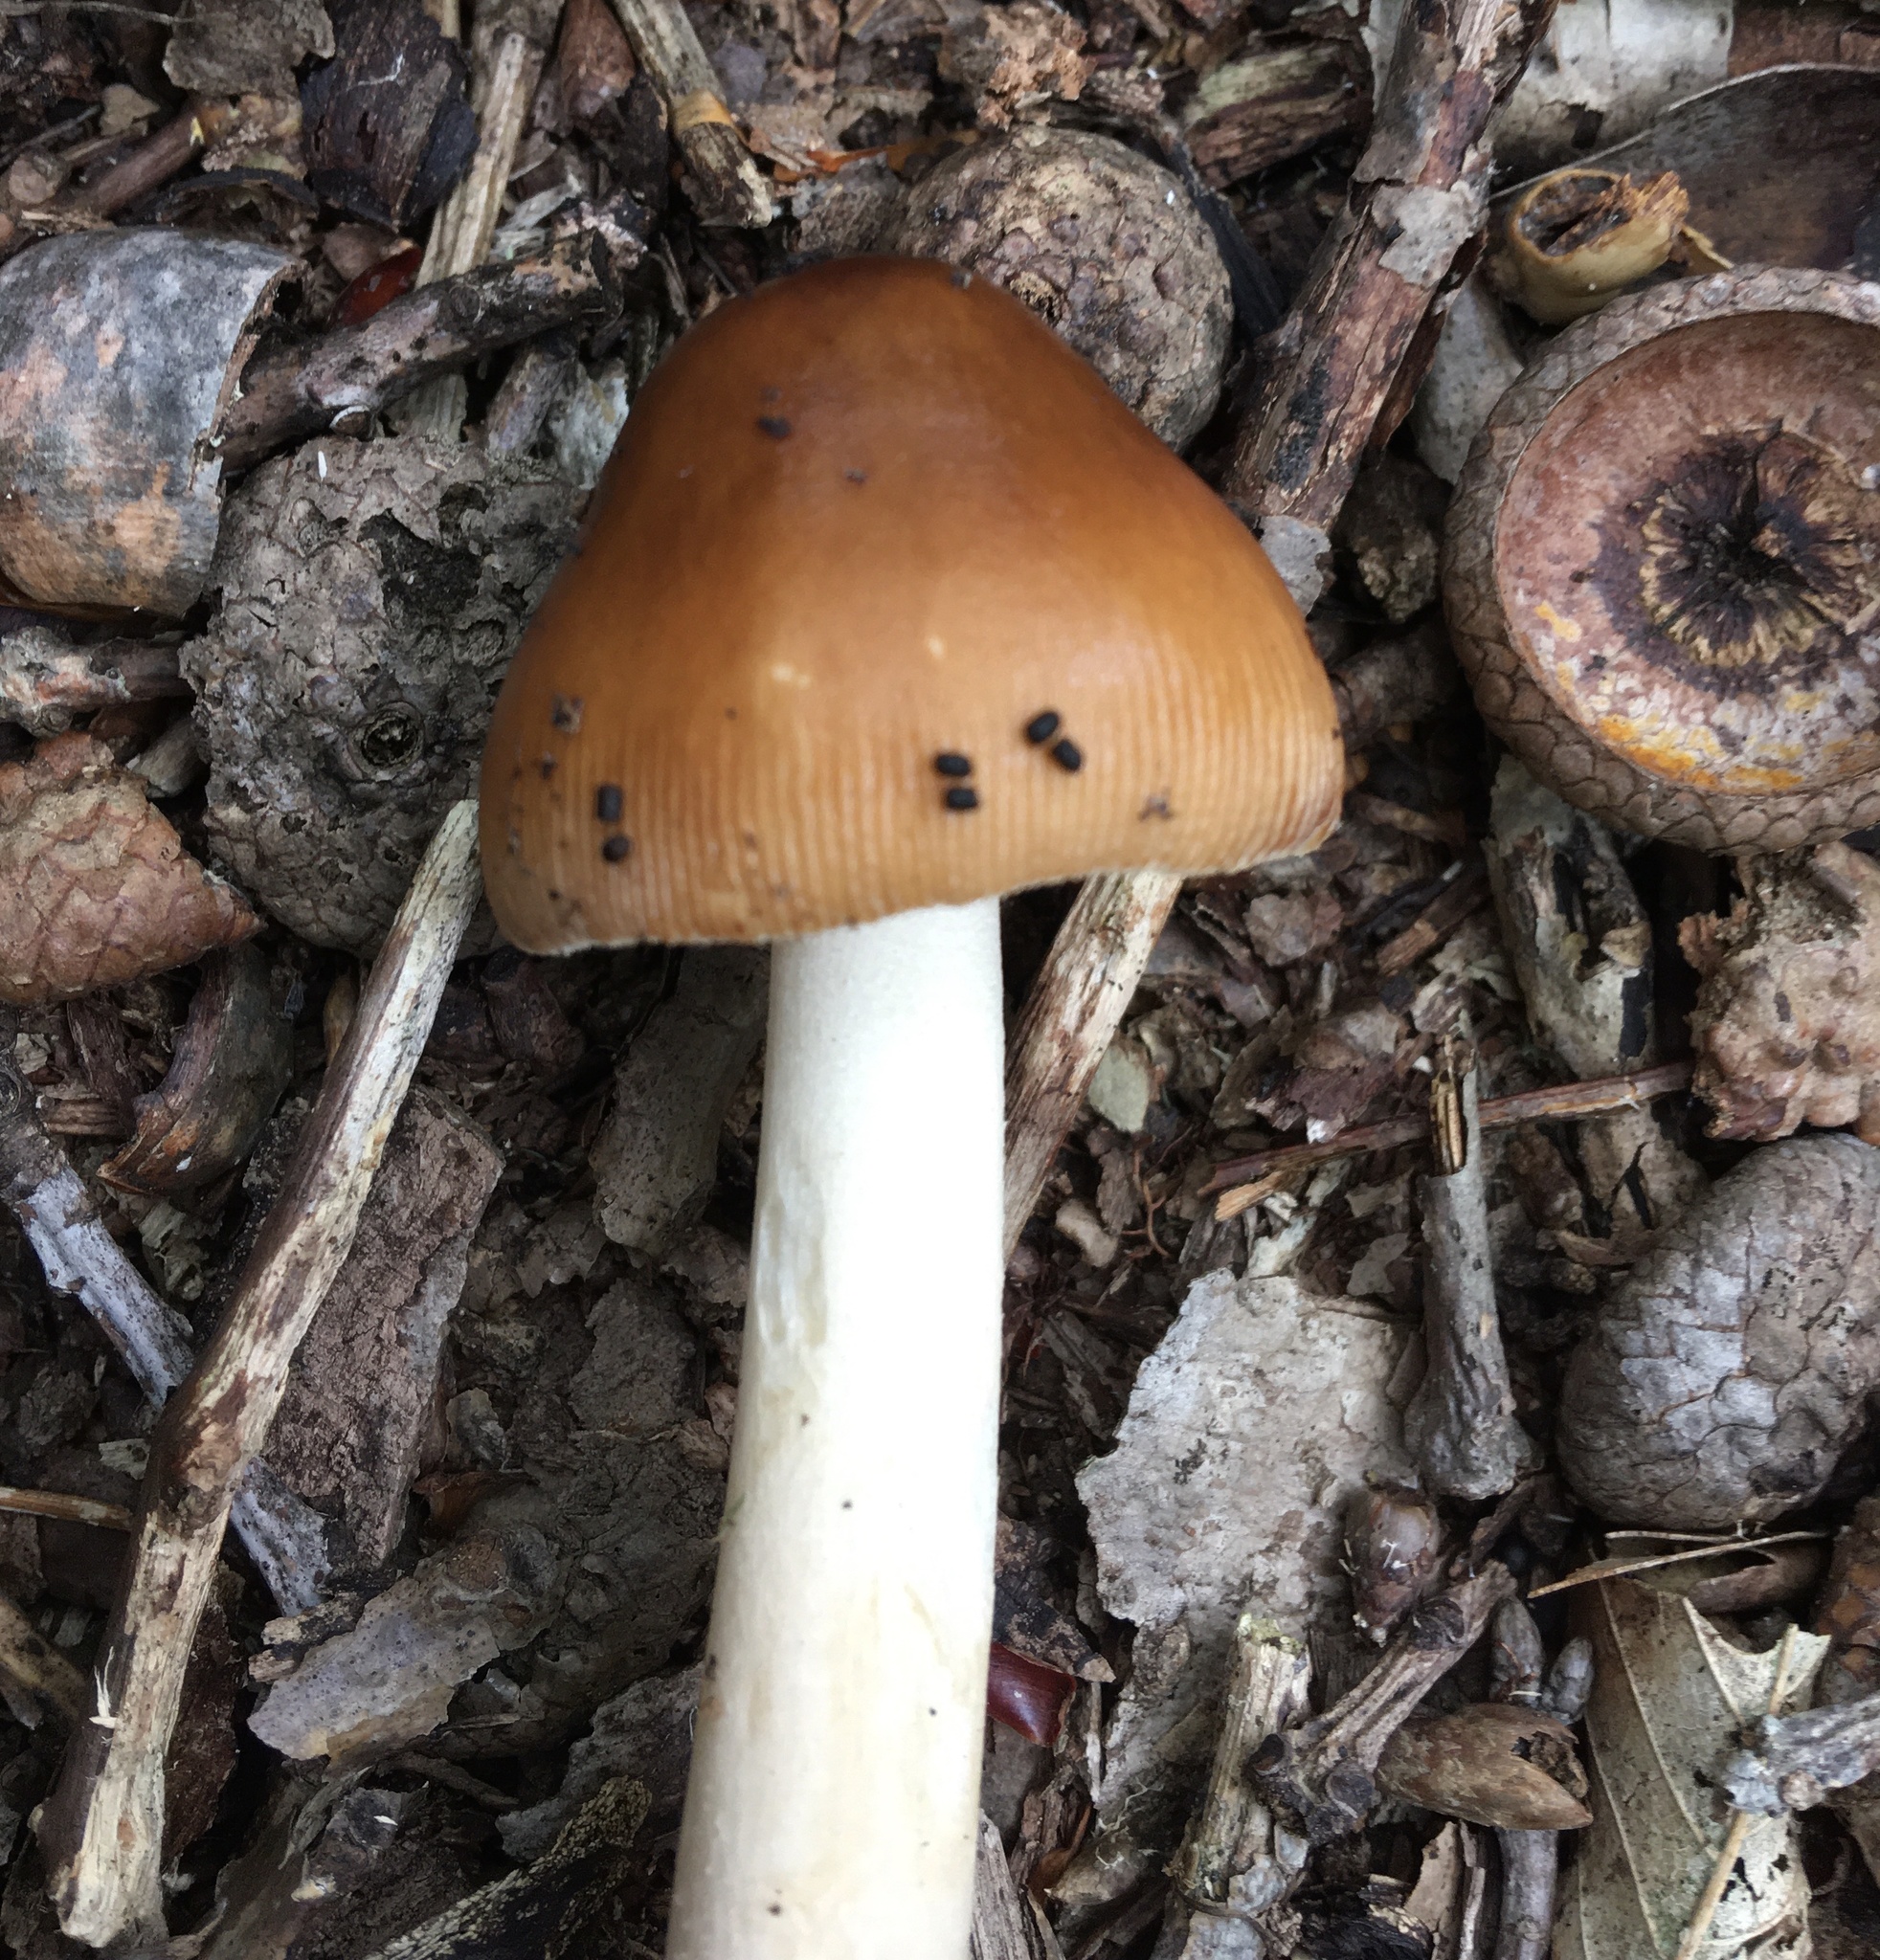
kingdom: Fungi
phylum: Basidiomycota
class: Agaricomycetes
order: Agaricales
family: Amanitaceae
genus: Amanita
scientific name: Amanita fulva
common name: Tawny grisette
